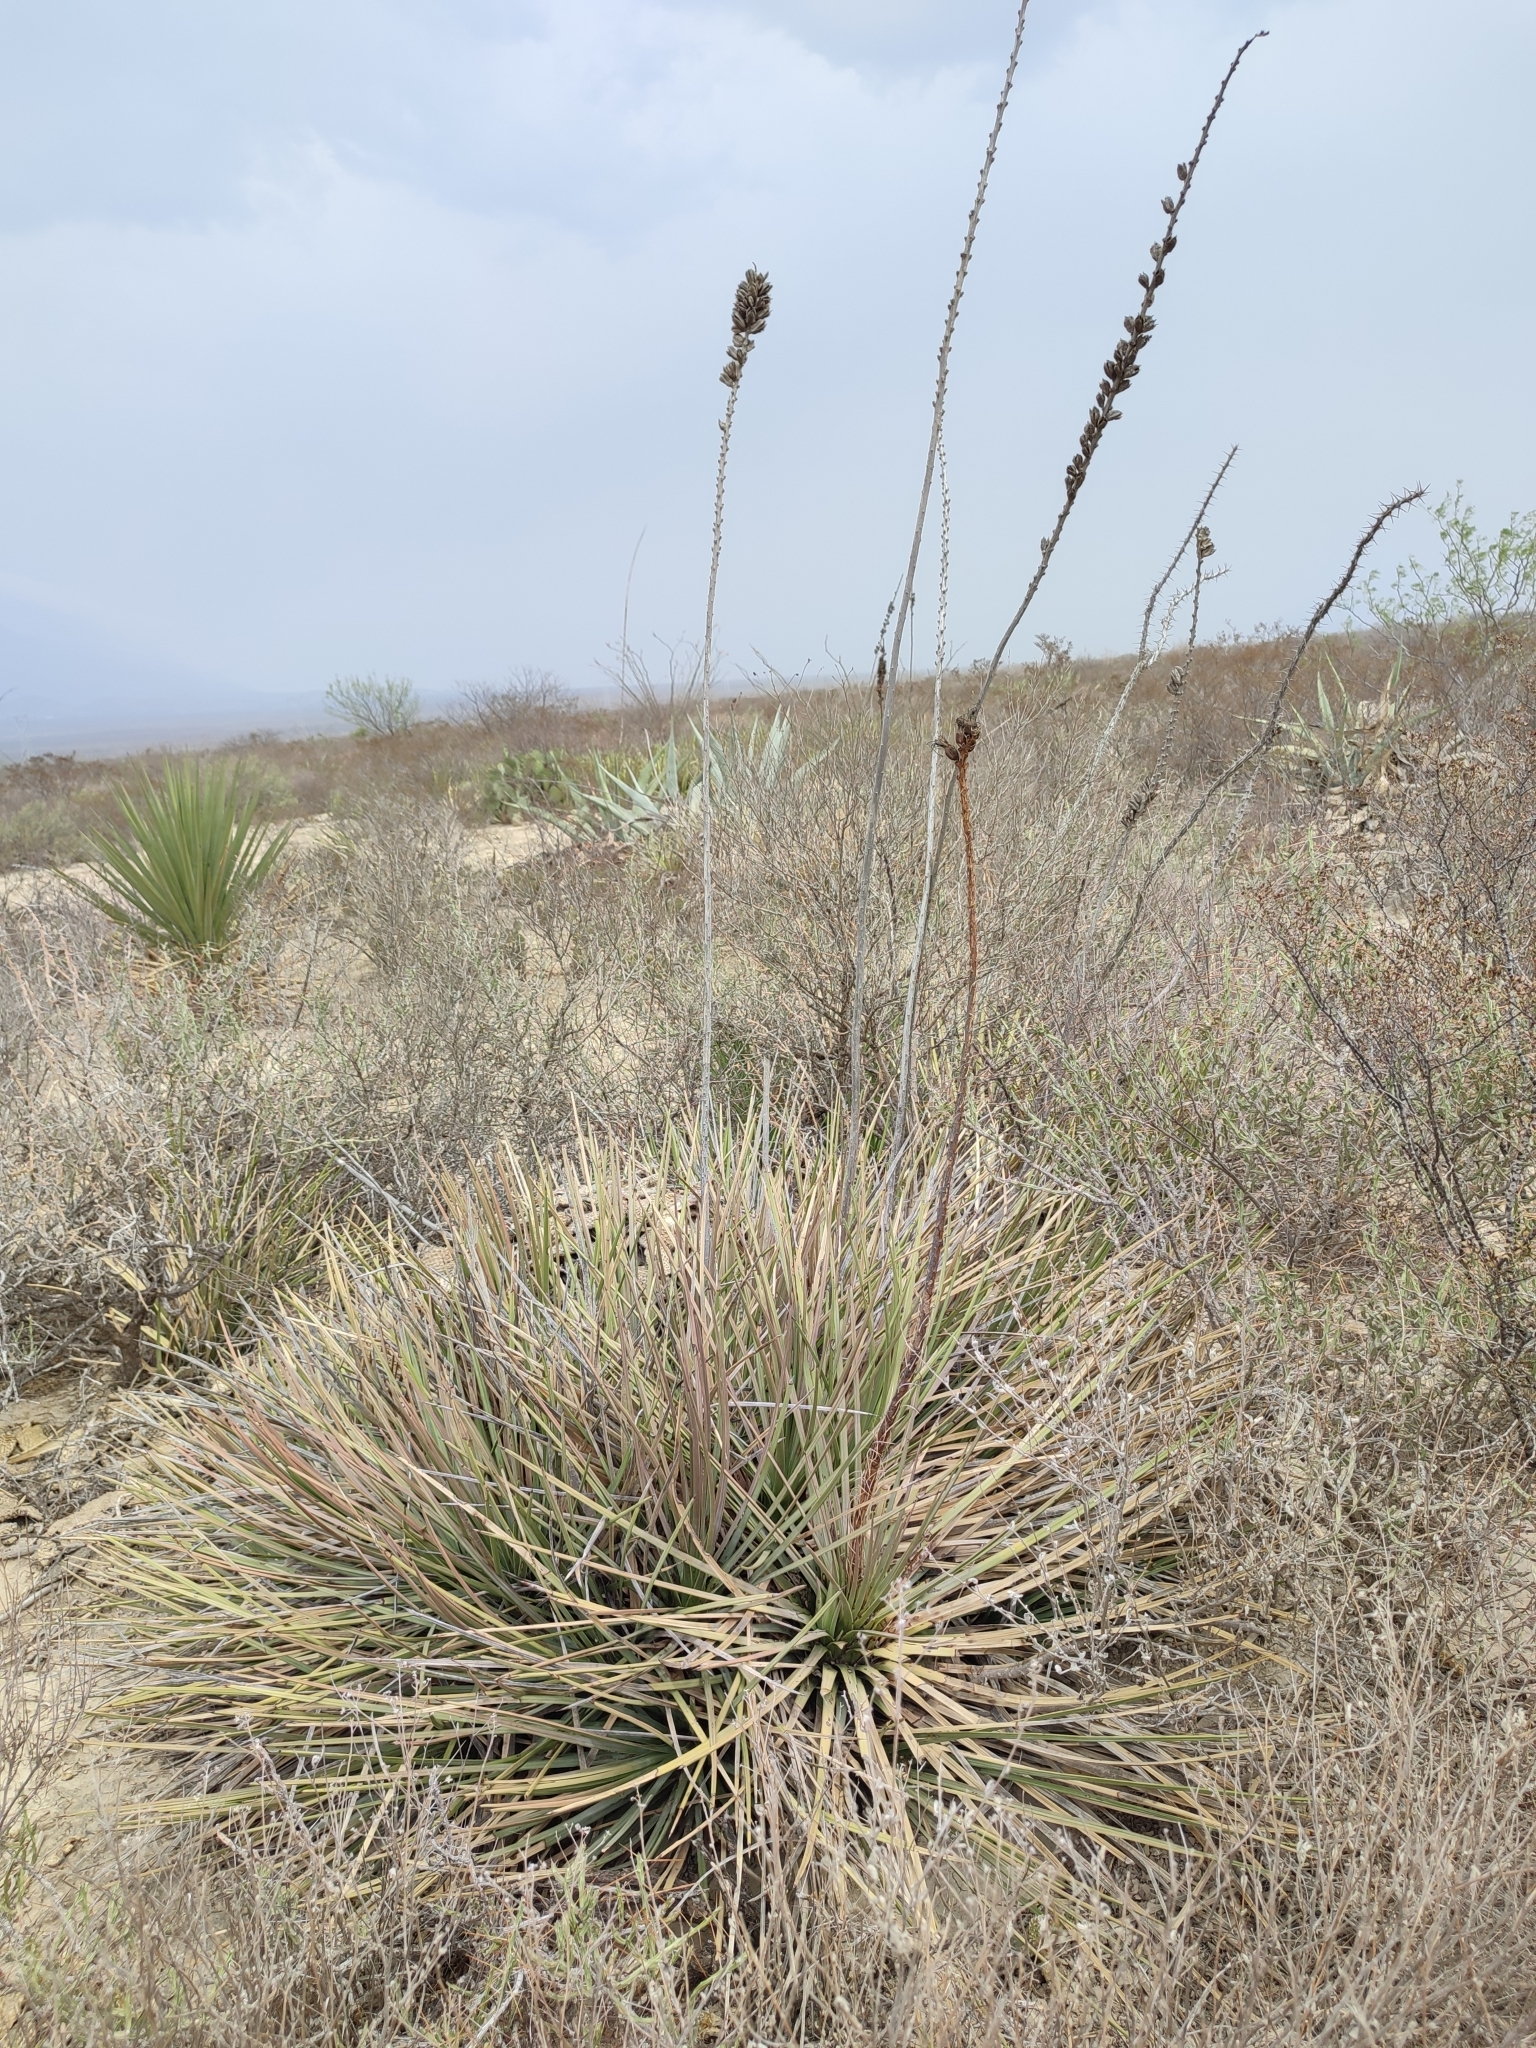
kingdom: Plantae
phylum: Tracheophyta
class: Liliopsida
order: Asparagales
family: Asparagaceae
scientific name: Asparagaceae
